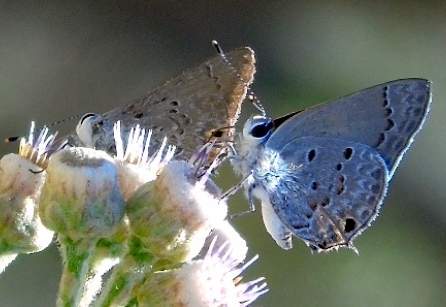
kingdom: Animalia
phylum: Arthropoda
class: Insecta
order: Lepidoptera
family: Lycaenidae
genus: Callicista
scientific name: Callicista columella
